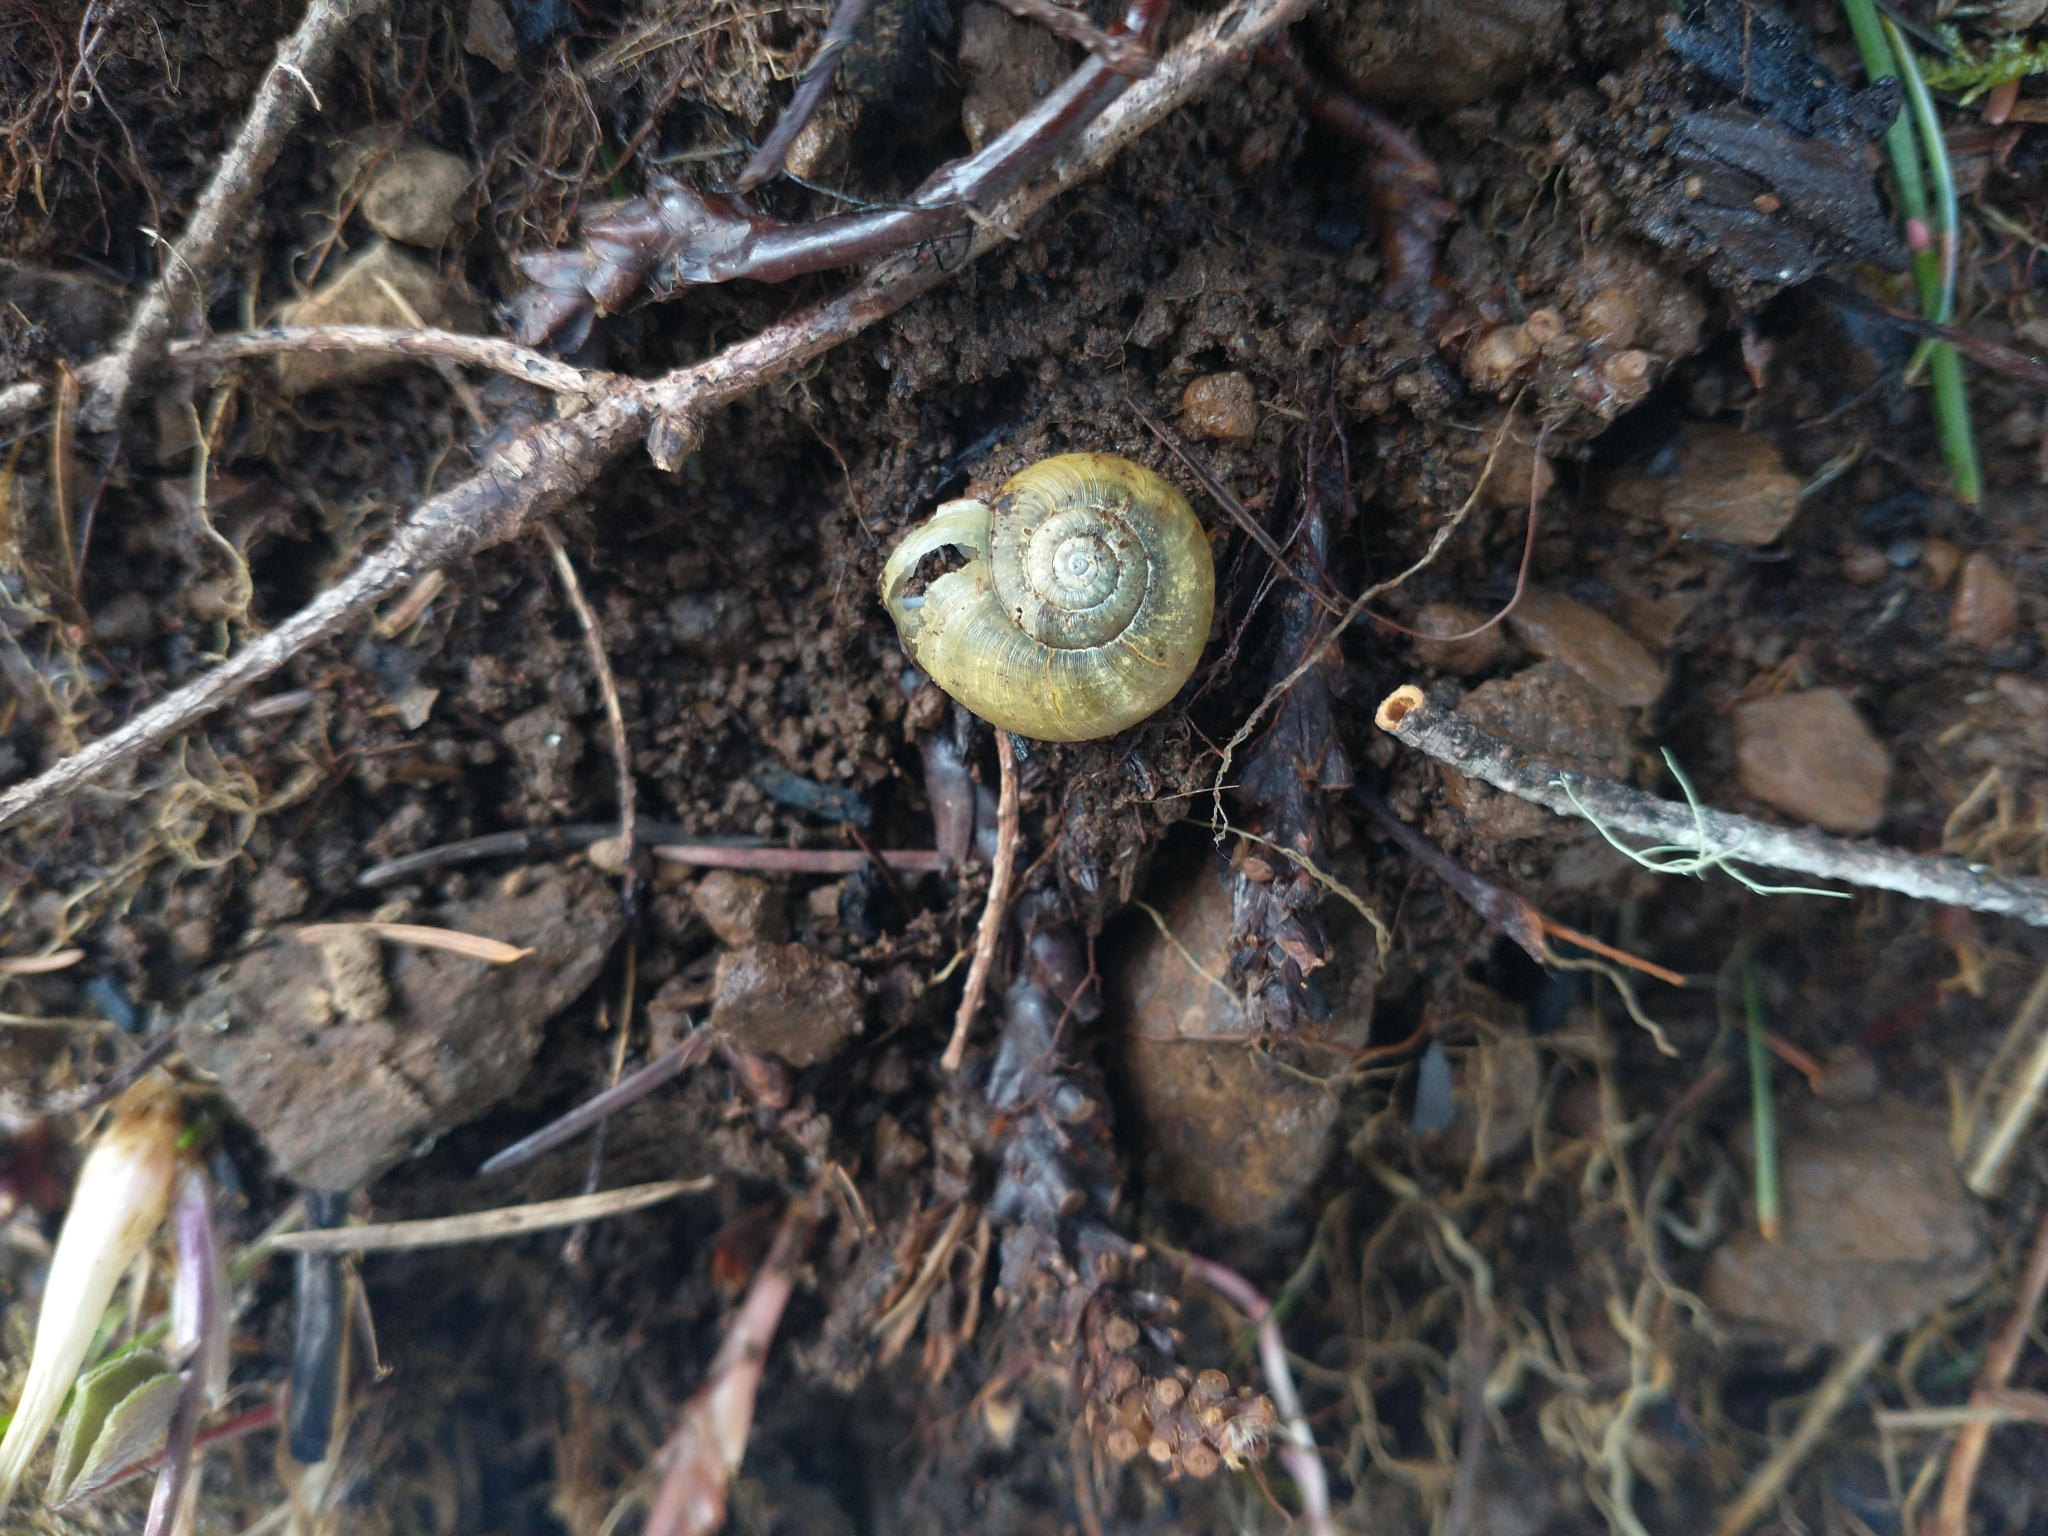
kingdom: Animalia
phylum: Mollusca
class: Gastropoda
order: Stylommatophora
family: Haplotrematidae
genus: Haplotrema
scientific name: Haplotrema vancouverense
